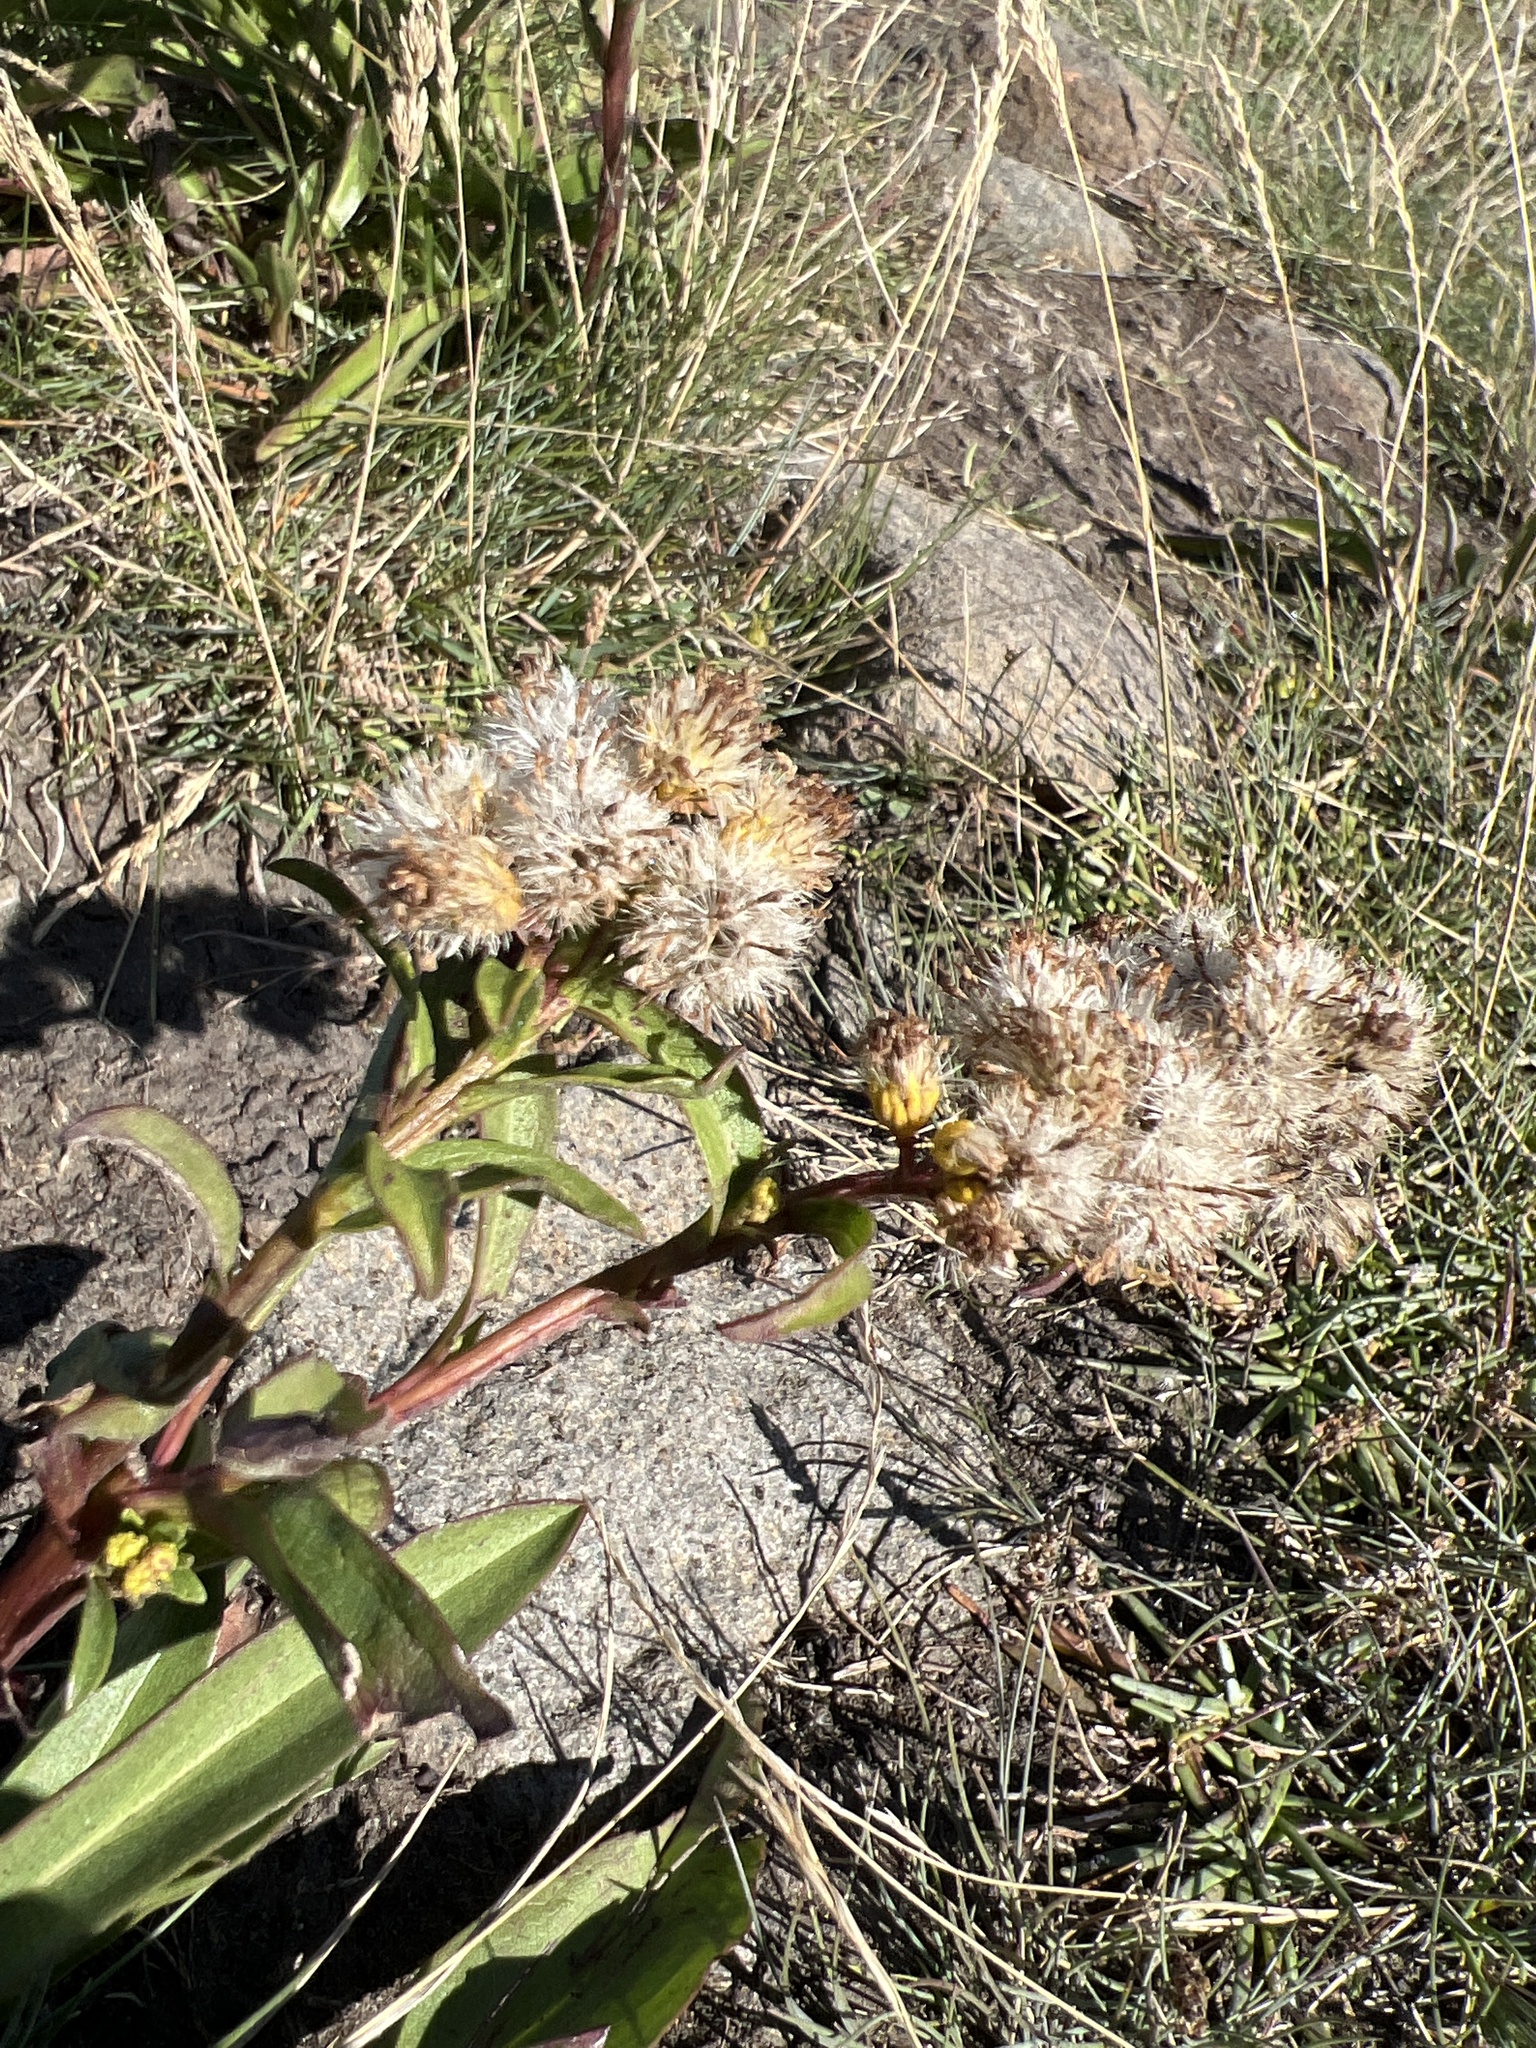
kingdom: Plantae
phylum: Tracheophyta
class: Magnoliopsida
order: Asterales
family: Asteraceae
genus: Solidago
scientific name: Solidago sempervirens
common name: Salt-marsh goldenrod
